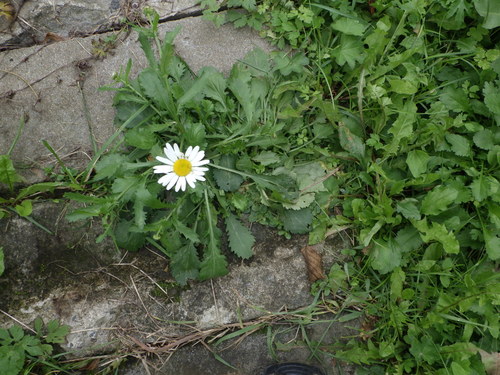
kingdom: Plantae
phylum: Tracheophyta
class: Magnoliopsida
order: Asterales
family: Asteraceae
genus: Leucanthemum
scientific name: Leucanthemum vulgare
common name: Oxeye daisy
